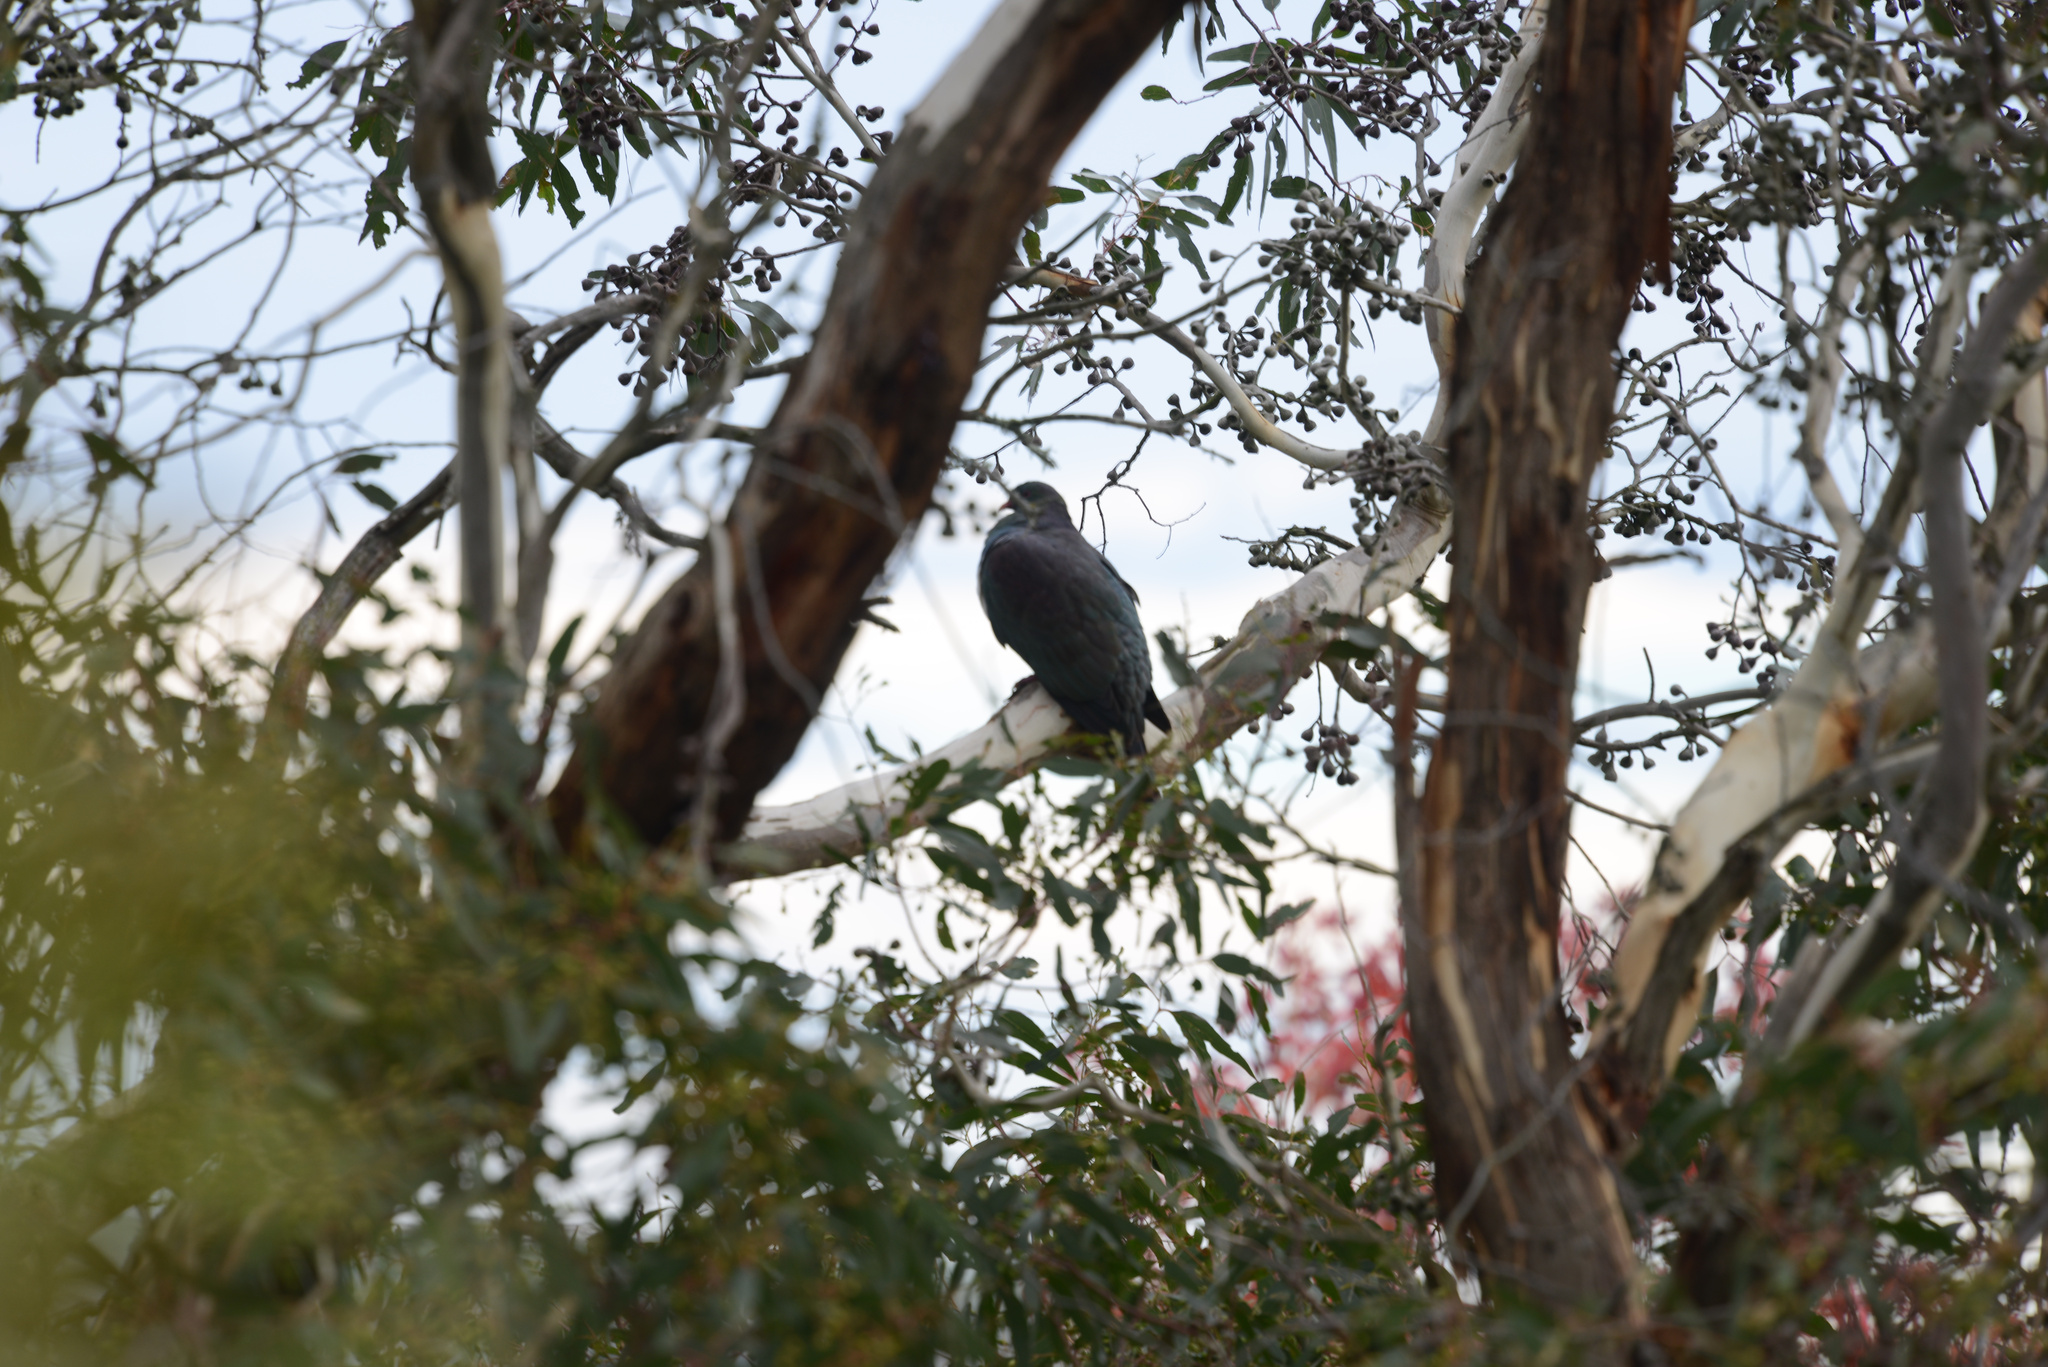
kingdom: Animalia
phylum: Chordata
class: Aves
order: Columbiformes
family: Columbidae
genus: Hemiphaga
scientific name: Hemiphaga novaeseelandiae
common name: New zealand pigeon
